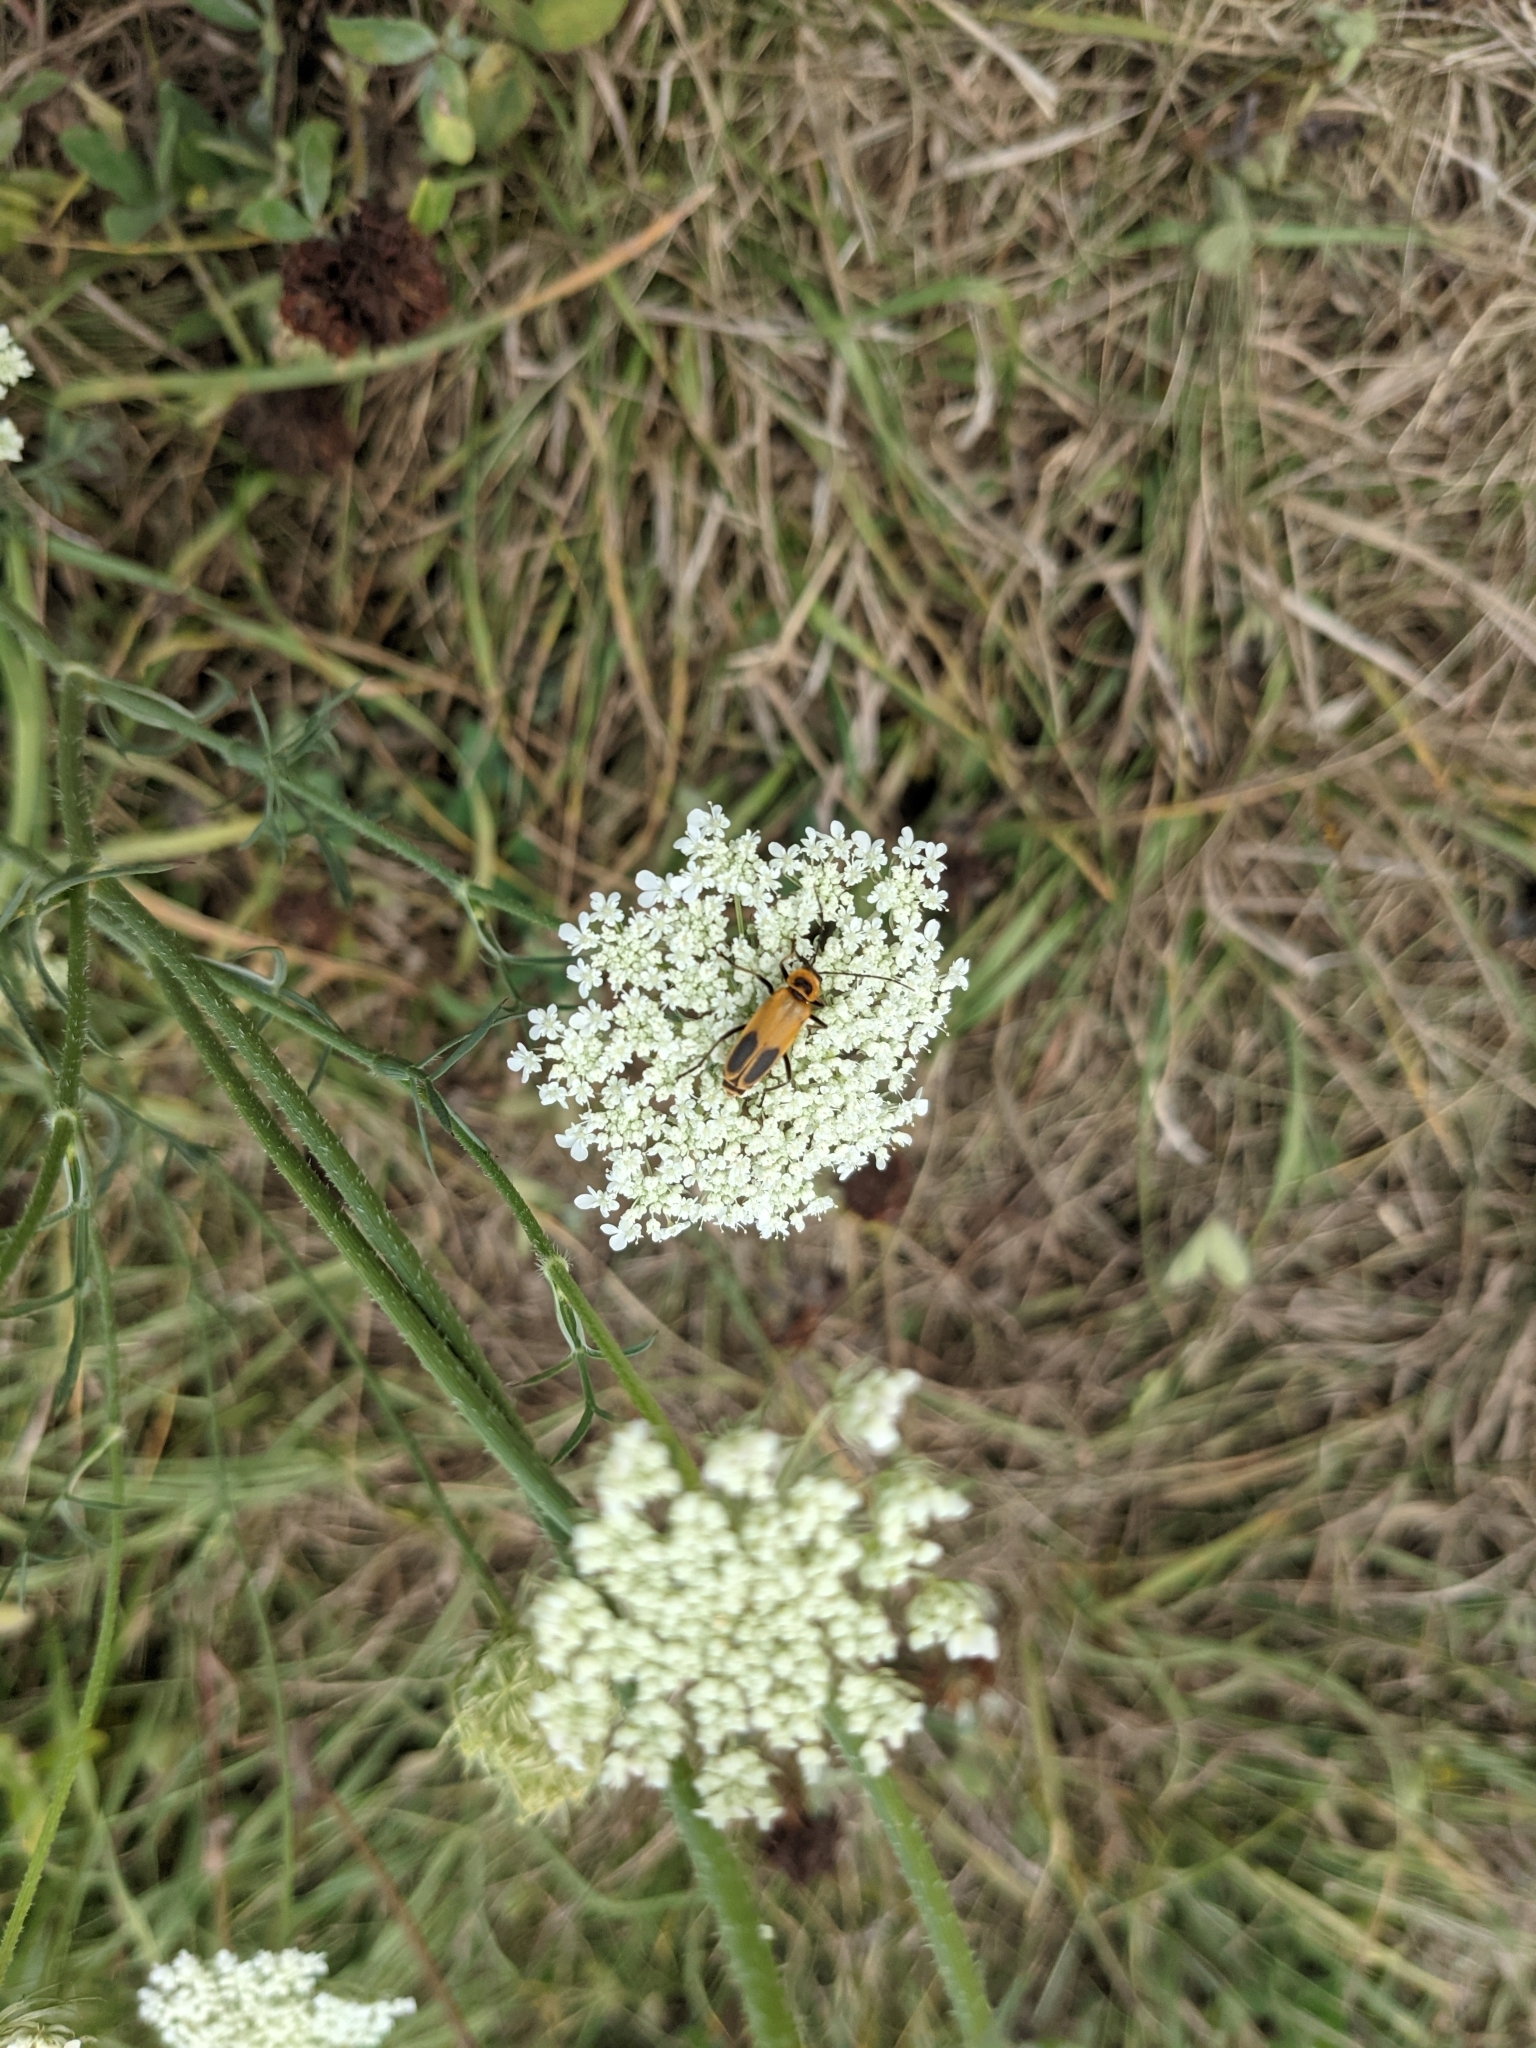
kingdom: Animalia
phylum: Arthropoda
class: Insecta
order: Coleoptera
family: Cantharidae
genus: Chauliognathus
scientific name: Chauliognathus pensylvanicus
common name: Goldenrod soldier beetle
